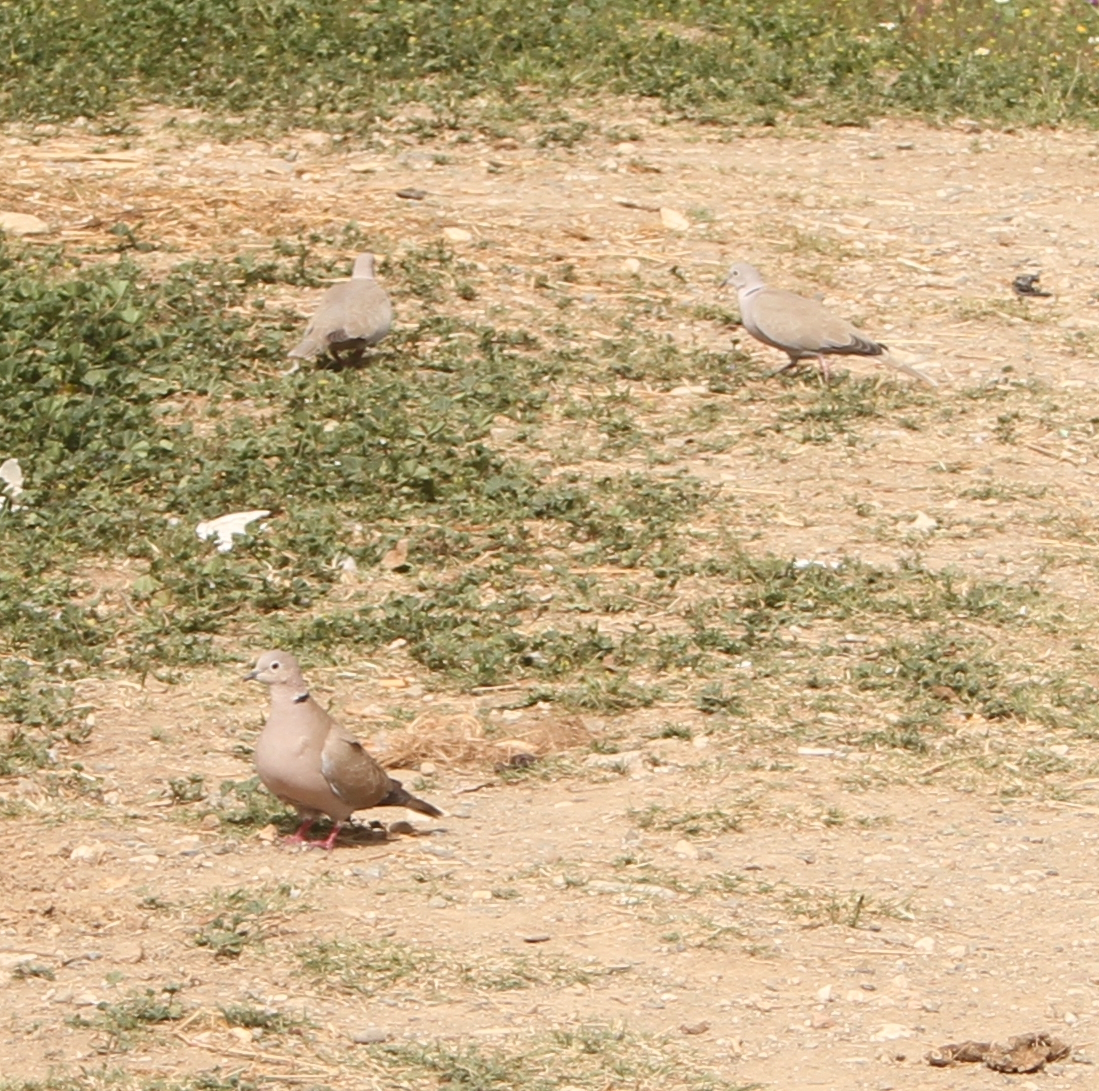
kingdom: Animalia
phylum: Chordata
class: Aves
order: Columbiformes
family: Columbidae
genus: Streptopelia
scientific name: Streptopelia decaocto
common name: Eurasian collared dove
